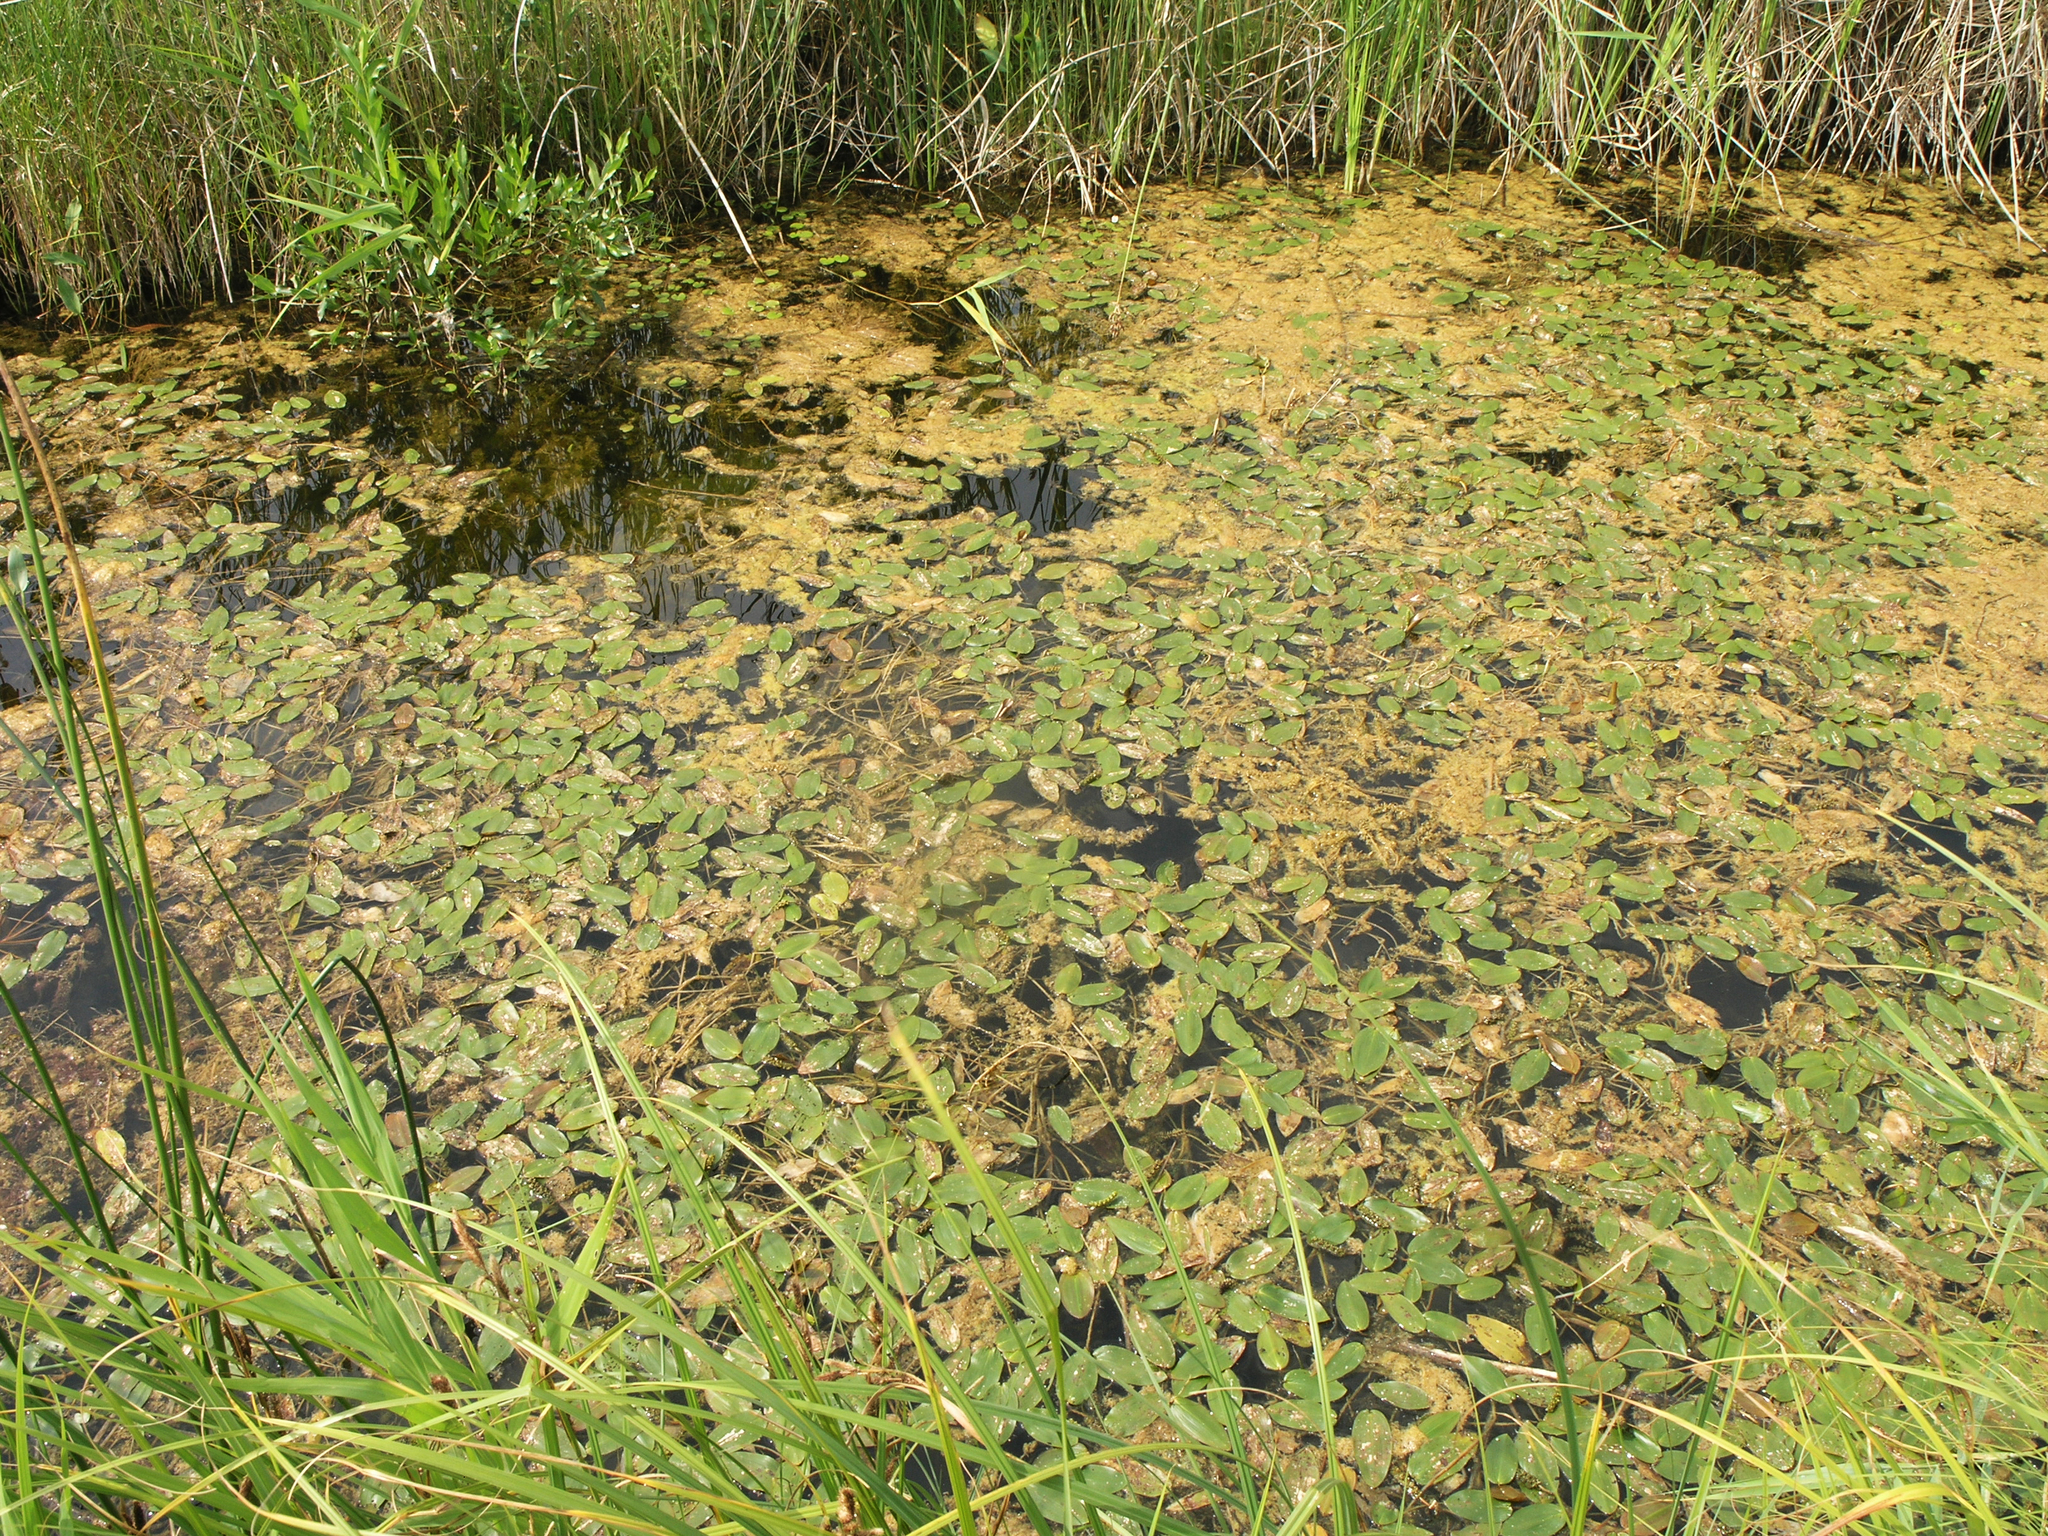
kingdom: Plantae
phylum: Tracheophyta
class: Liliopsida
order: Alismatales
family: Potamogetonaceae
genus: Potamogeton
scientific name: Potamogeton natans
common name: Broad-leaved pondweed
